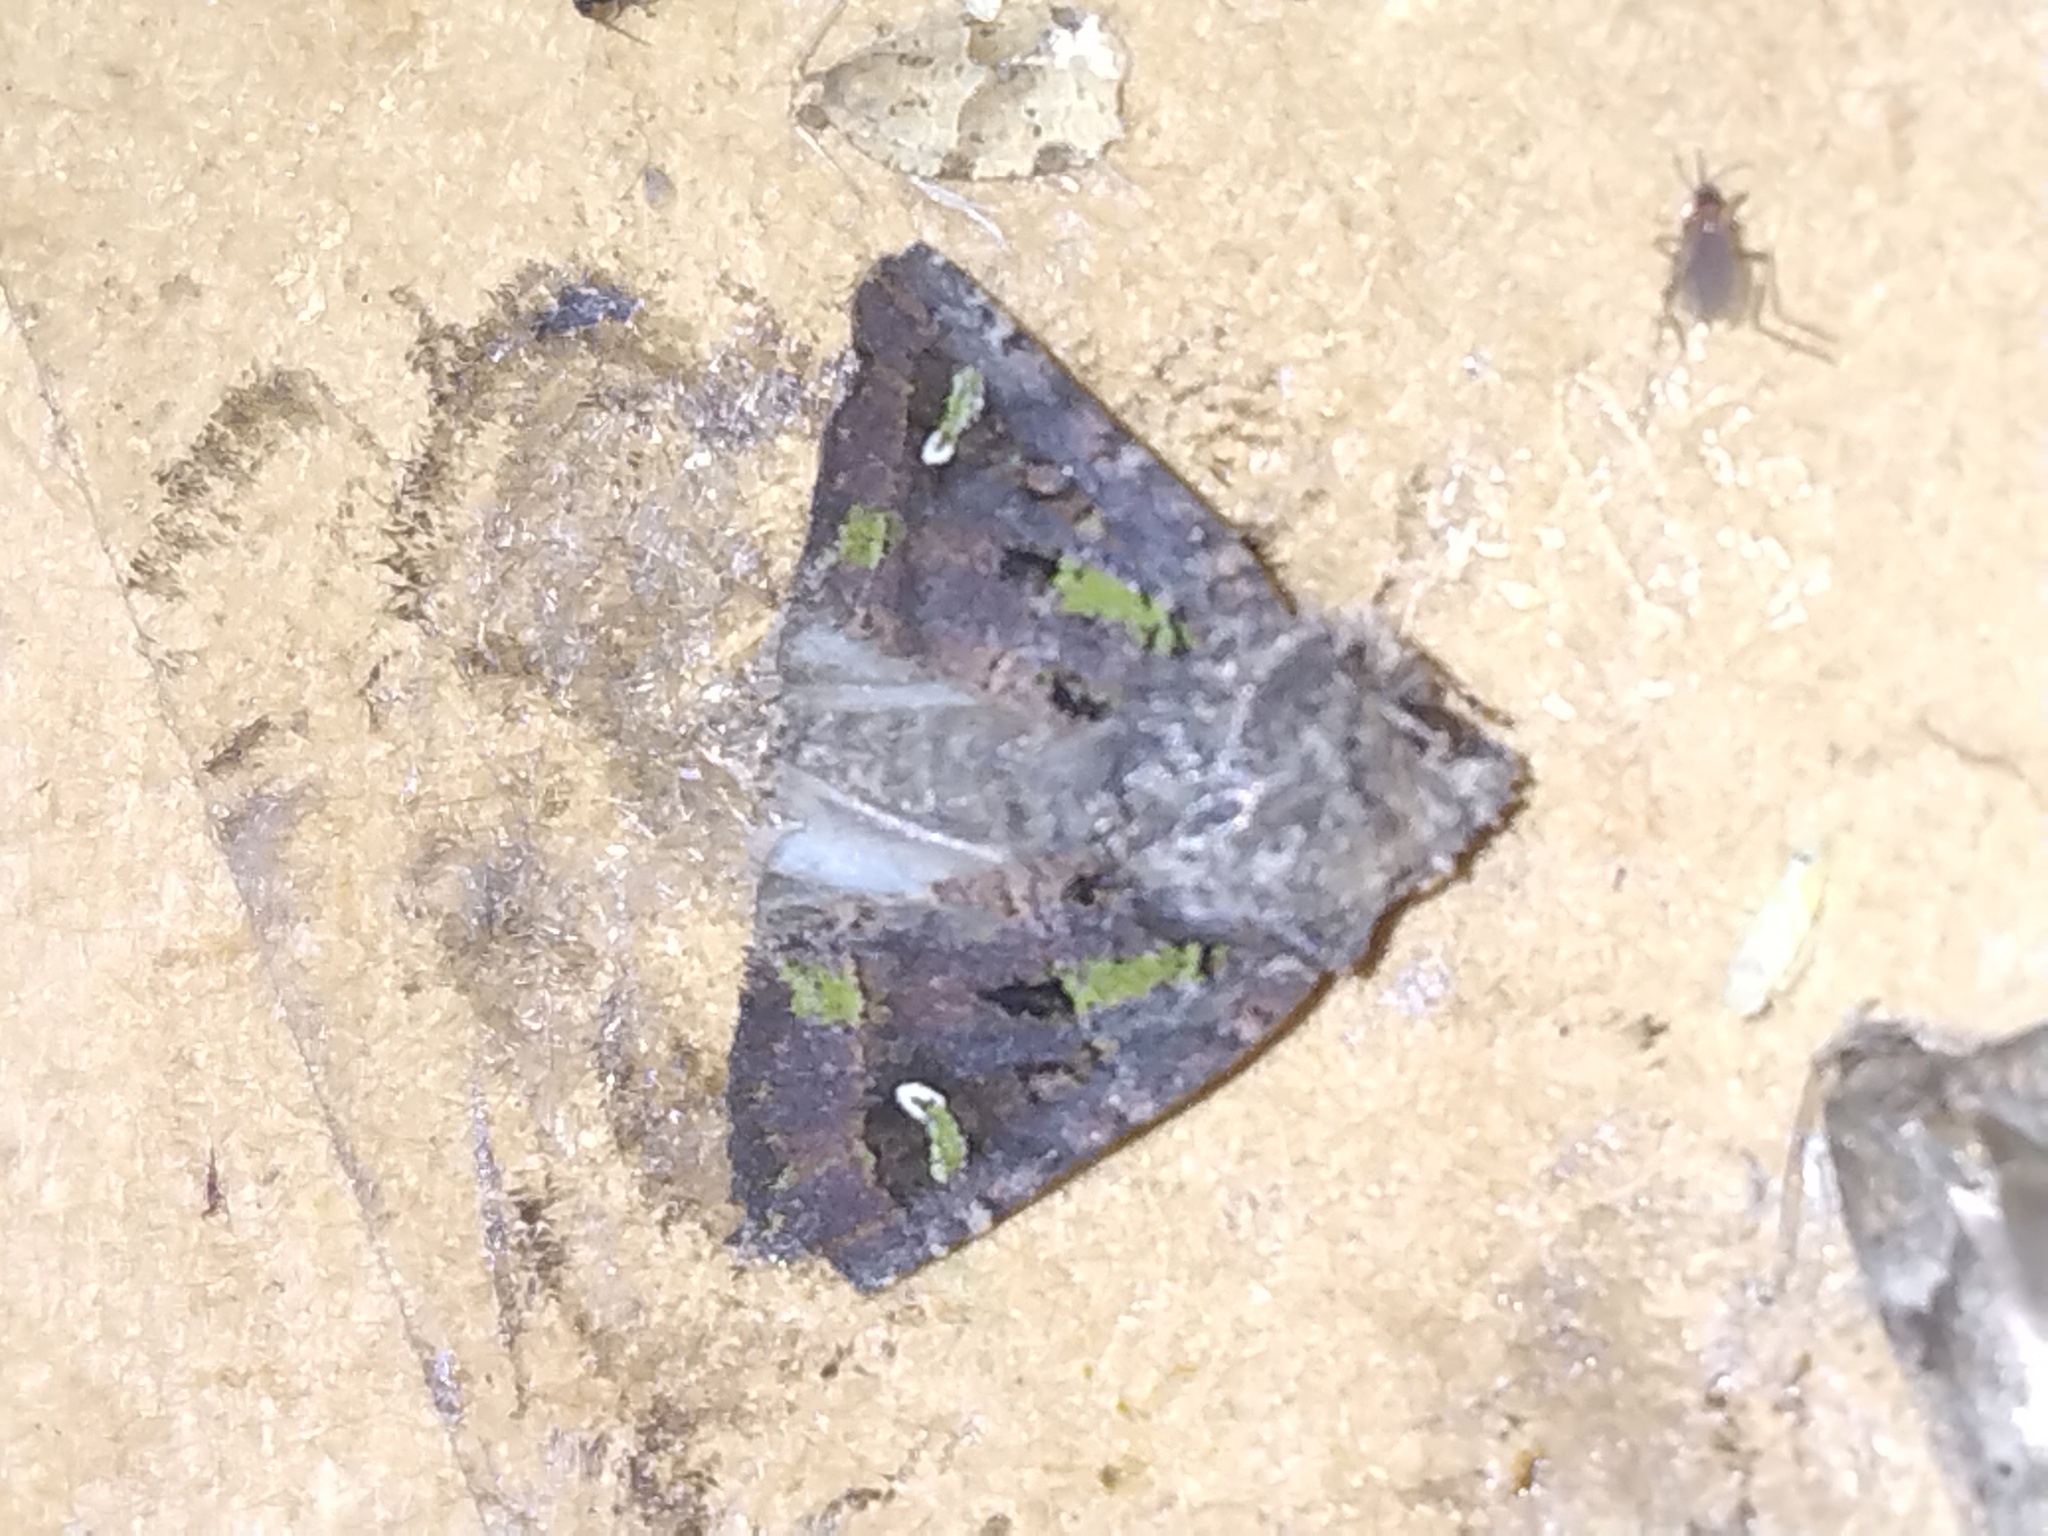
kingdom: Animalia
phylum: Arthropoda
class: Insecta
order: Lepidoptera
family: Noctuidae
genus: Lacinipolia
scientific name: Lacinipolia renigera
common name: Kidney-spotted minor
